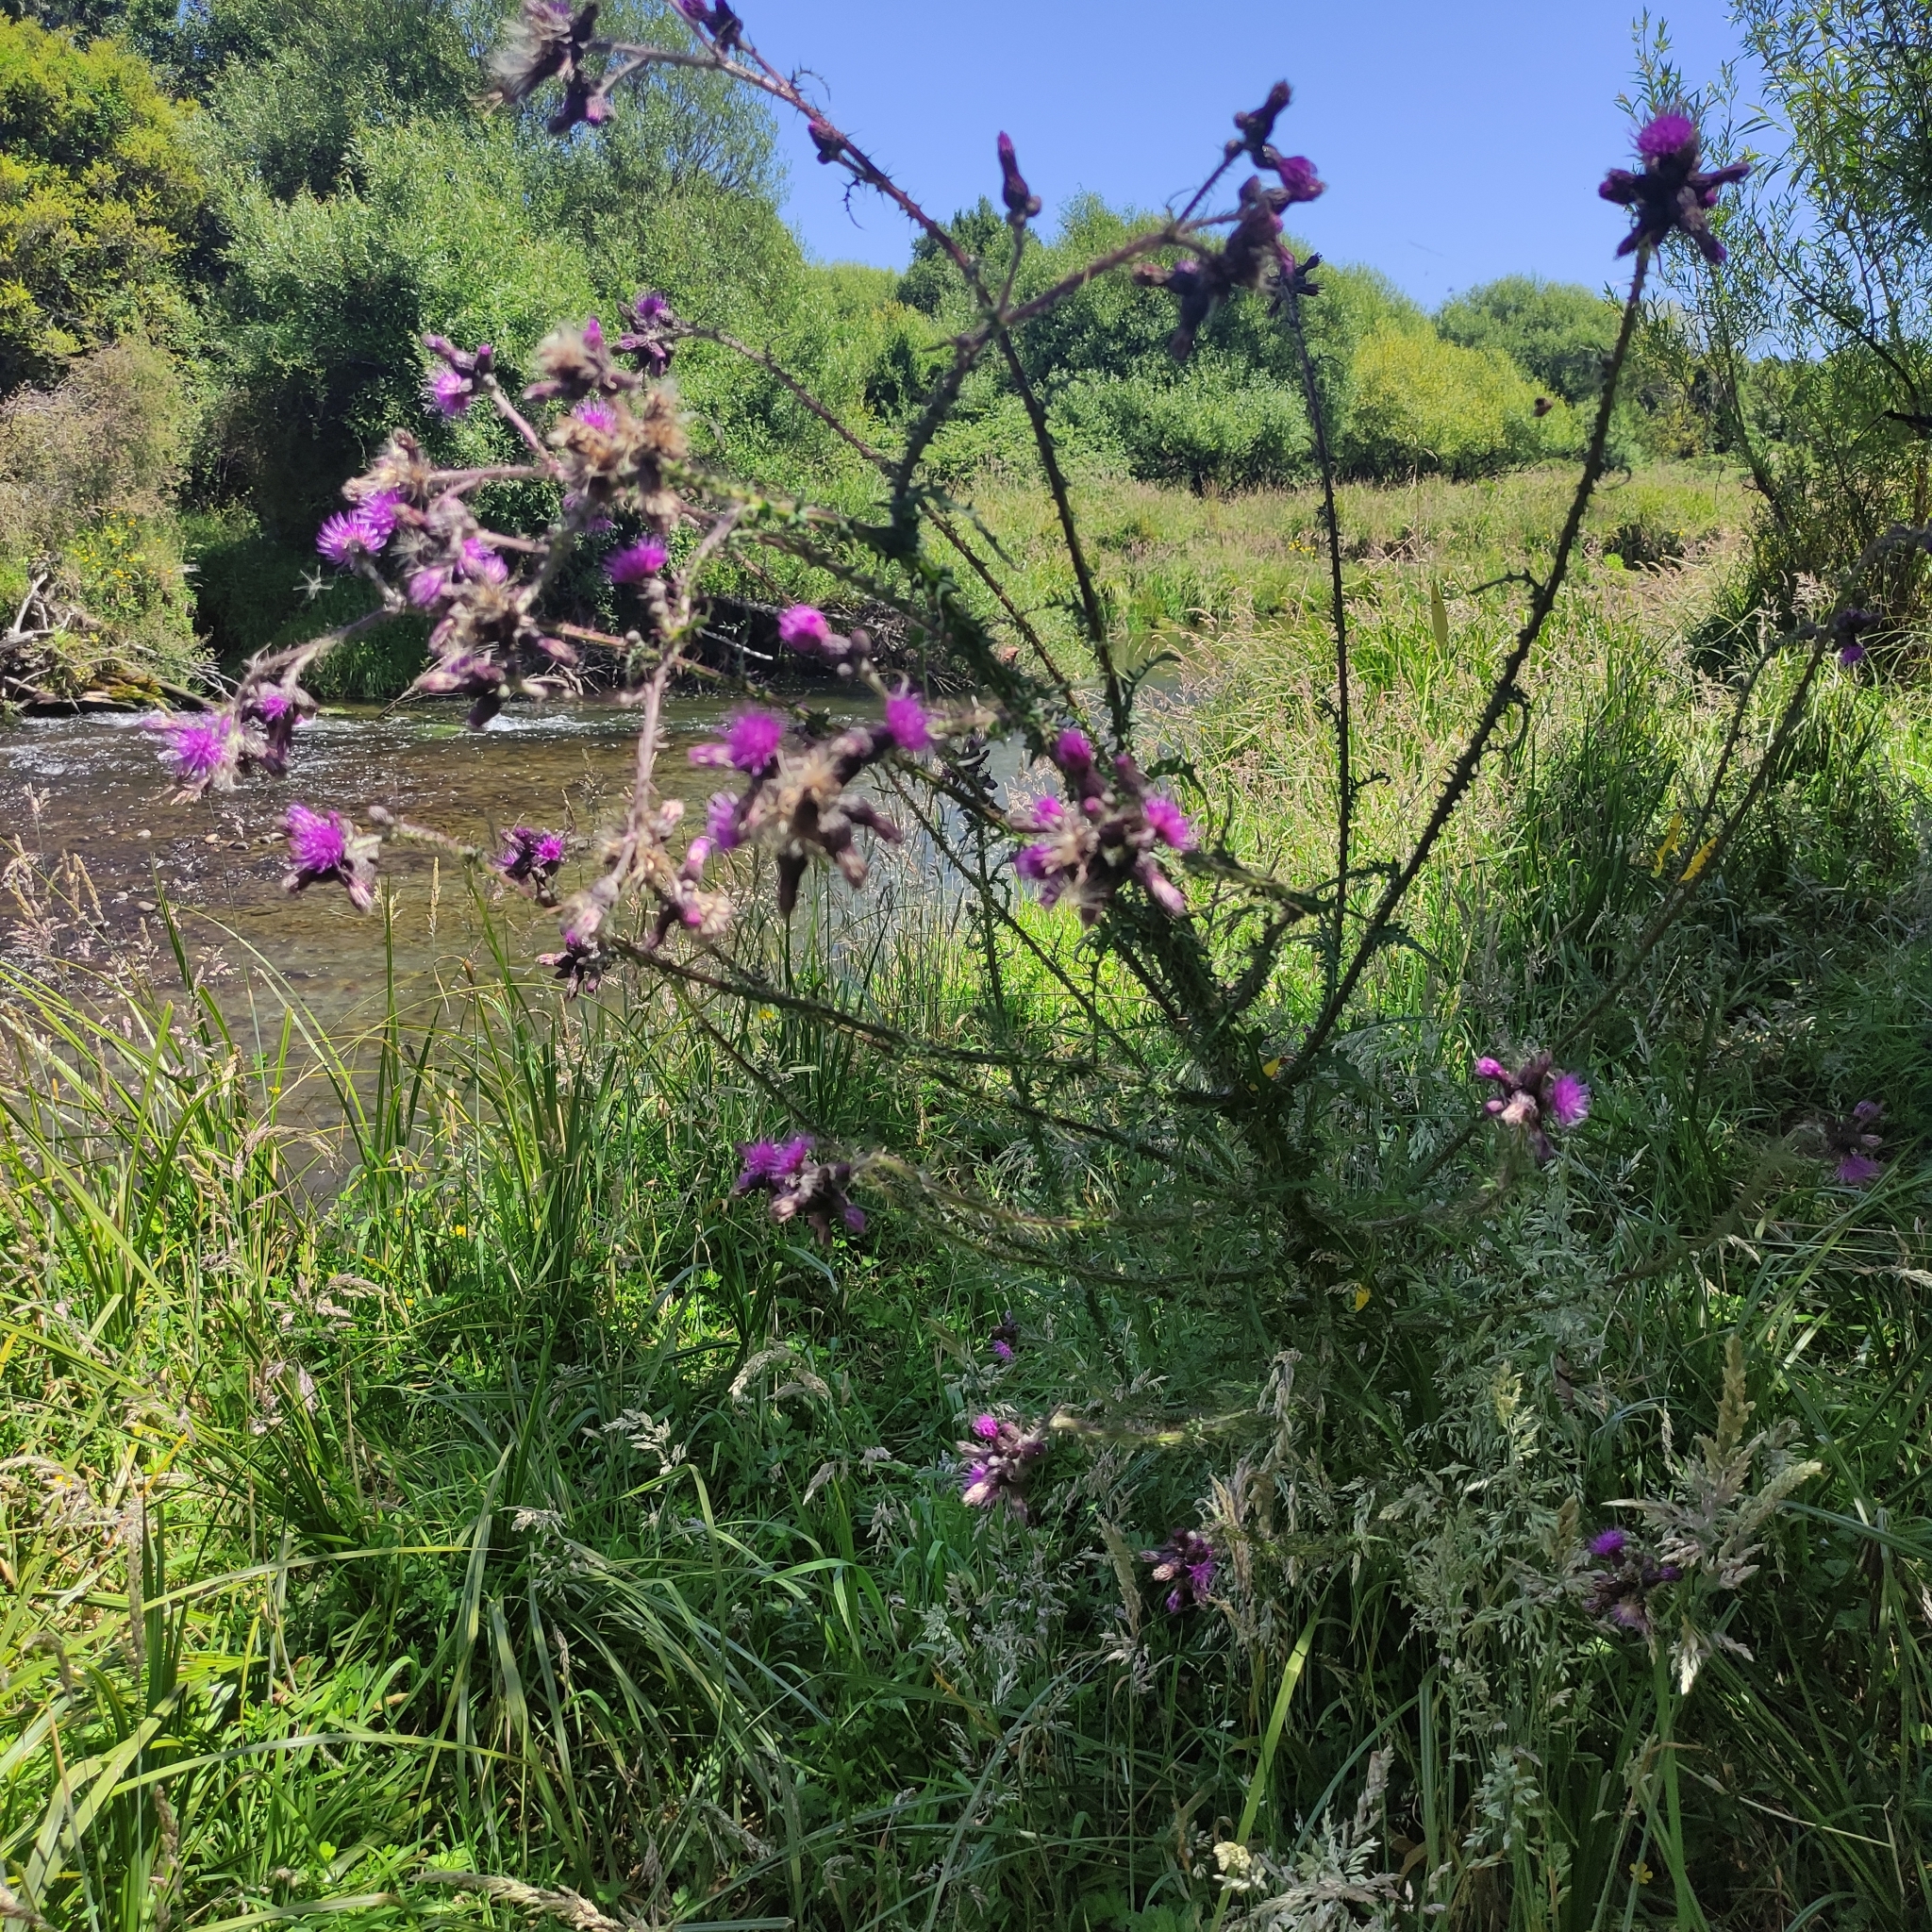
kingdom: Plantae
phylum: Tracheophyta
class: Magnoliopsida
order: Asterales
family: Asteraceae
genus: Cirsium
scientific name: Cirsium palustre
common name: Marsh thistle
